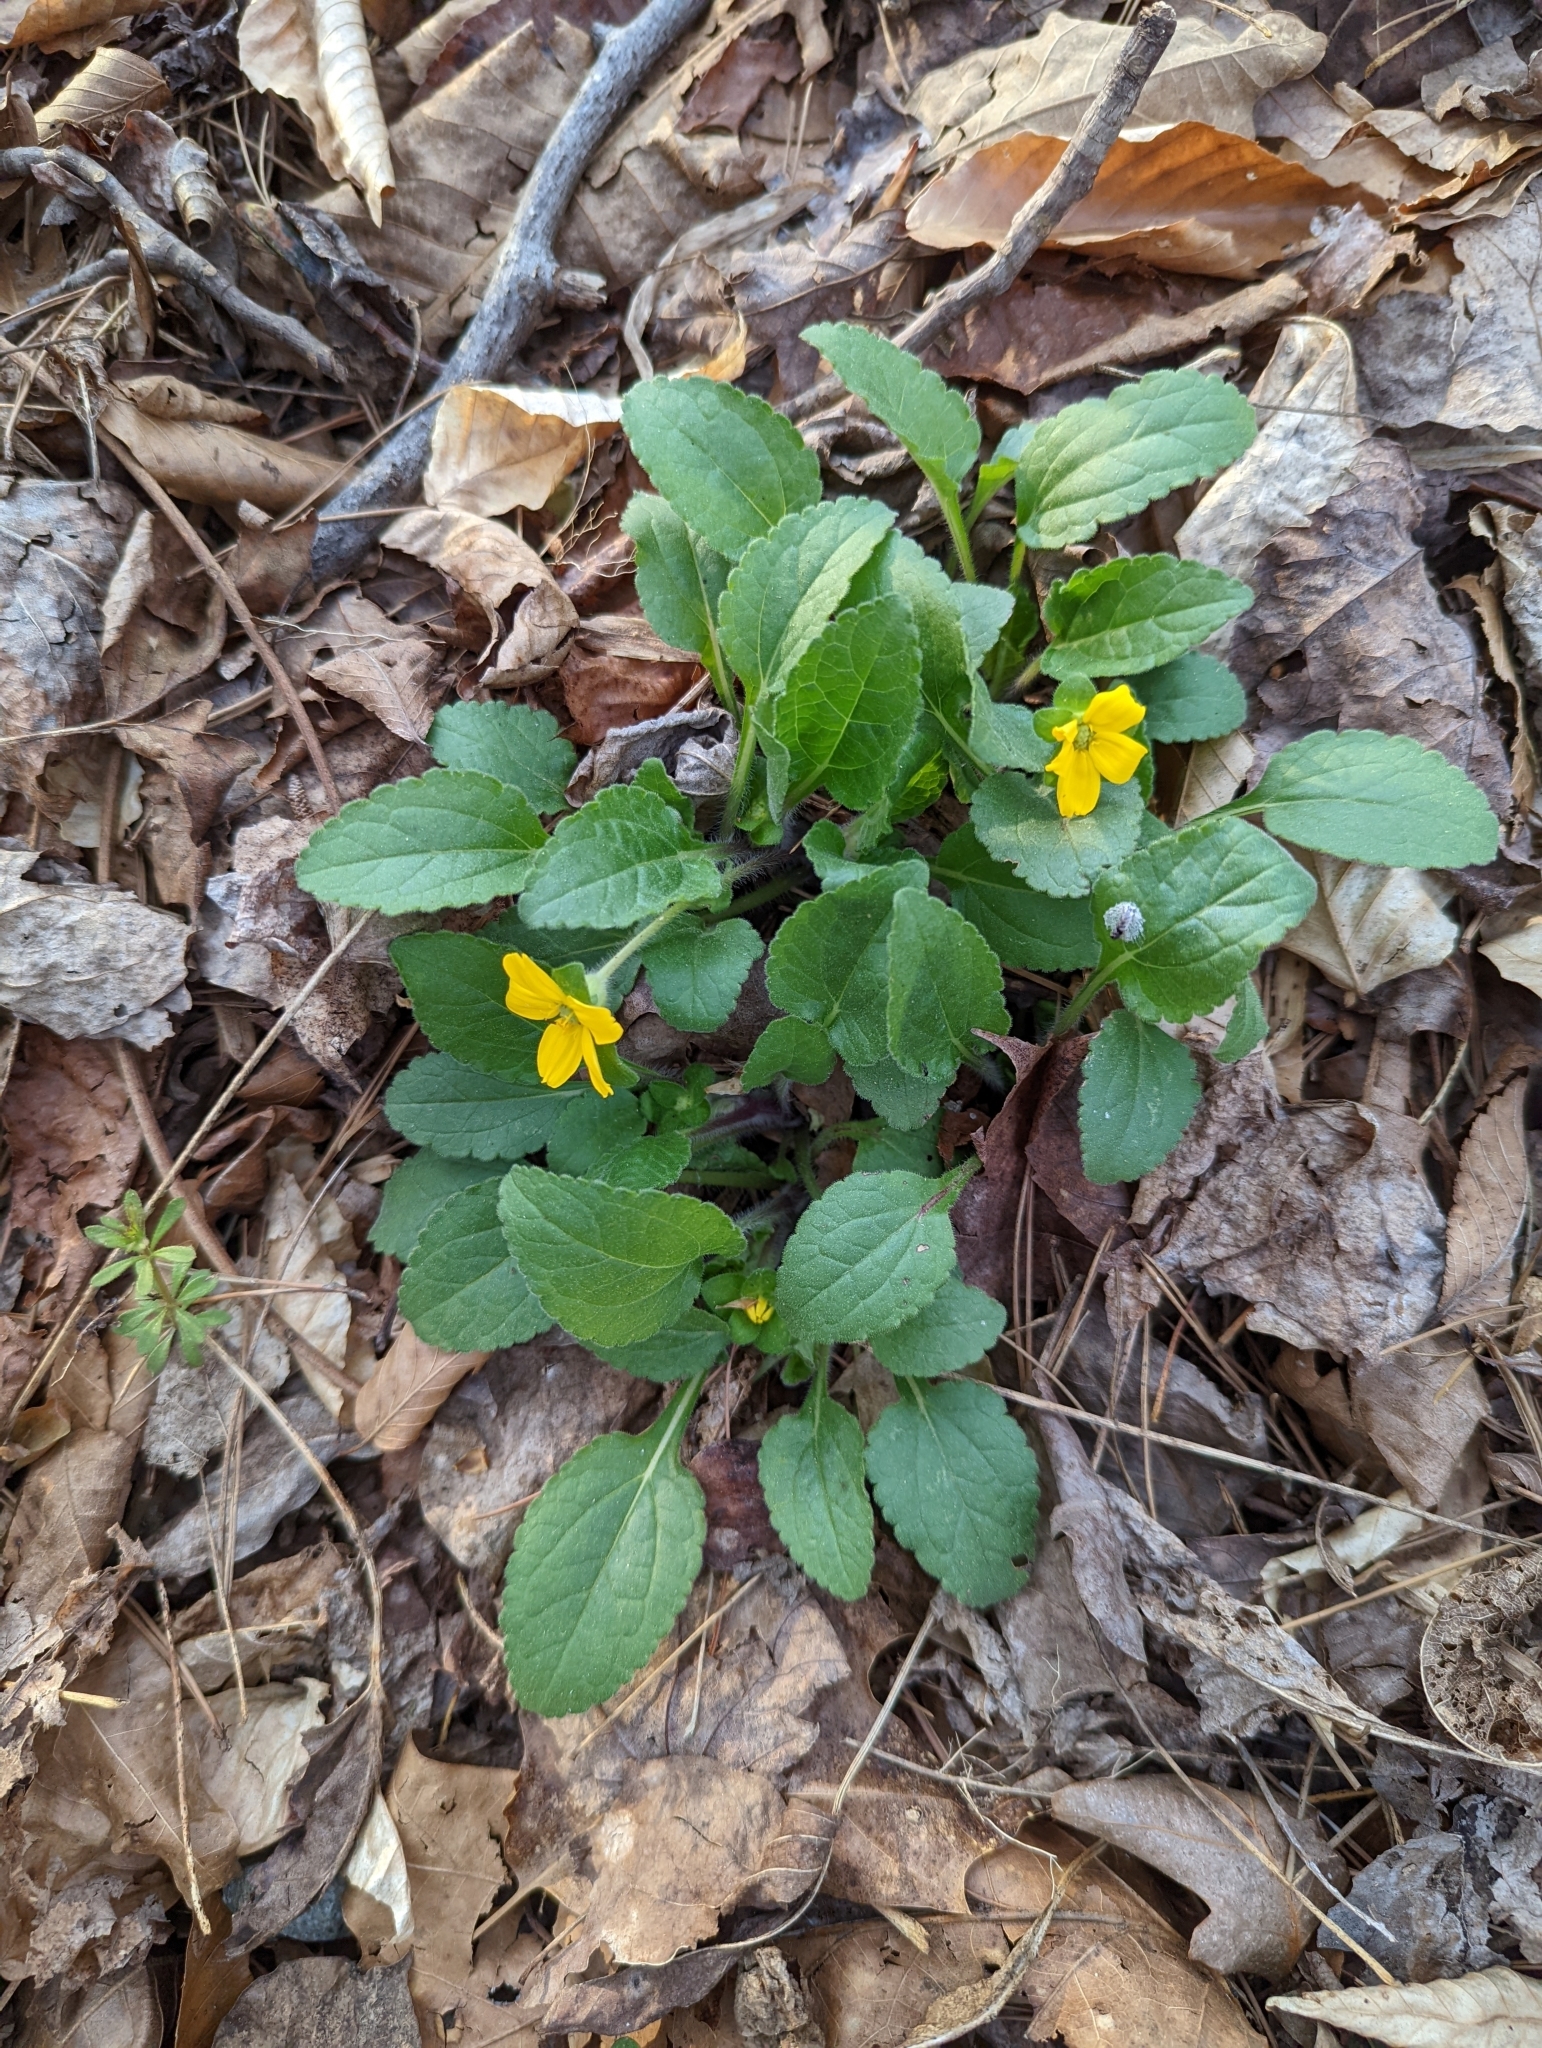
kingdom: Plantae
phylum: Tracheophyta
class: Magnoliopsida
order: Asterales
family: Asteraceae
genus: Chrysogonum
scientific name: Chrysogonum virginianum
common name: Golden-knee
